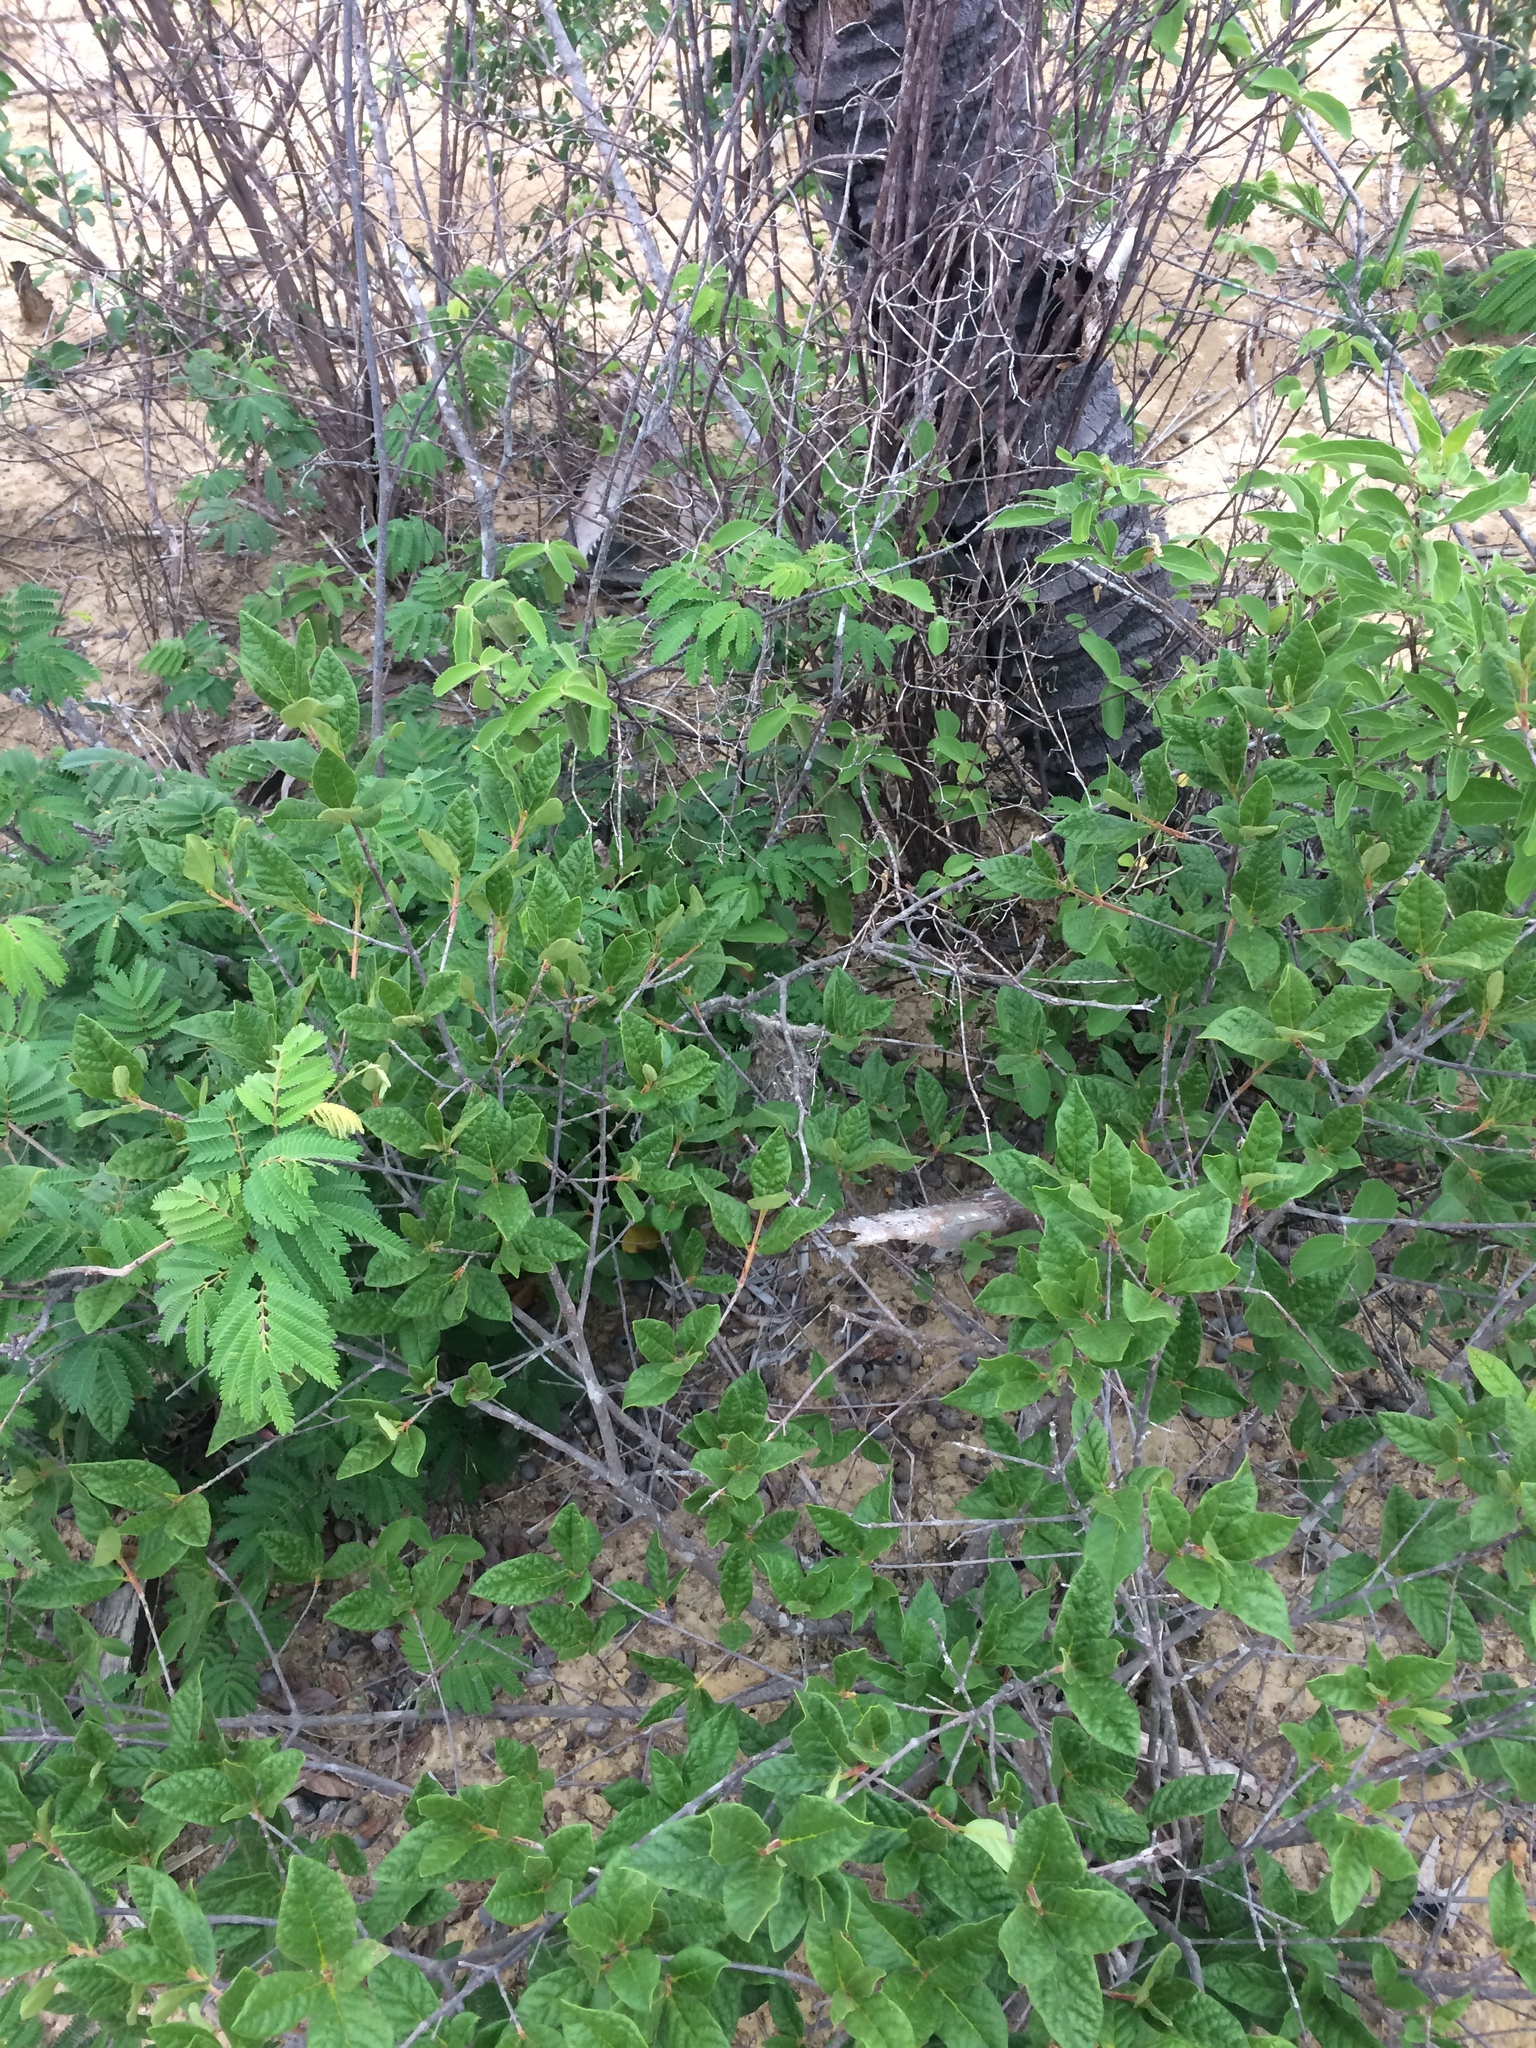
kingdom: Animalia
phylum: Chordata
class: Aves
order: Passeriformes
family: Tyrannidae
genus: Hemitriccus
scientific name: Hemitriccus margaritaceiventer
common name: Pearly-vented tody-tyrant
